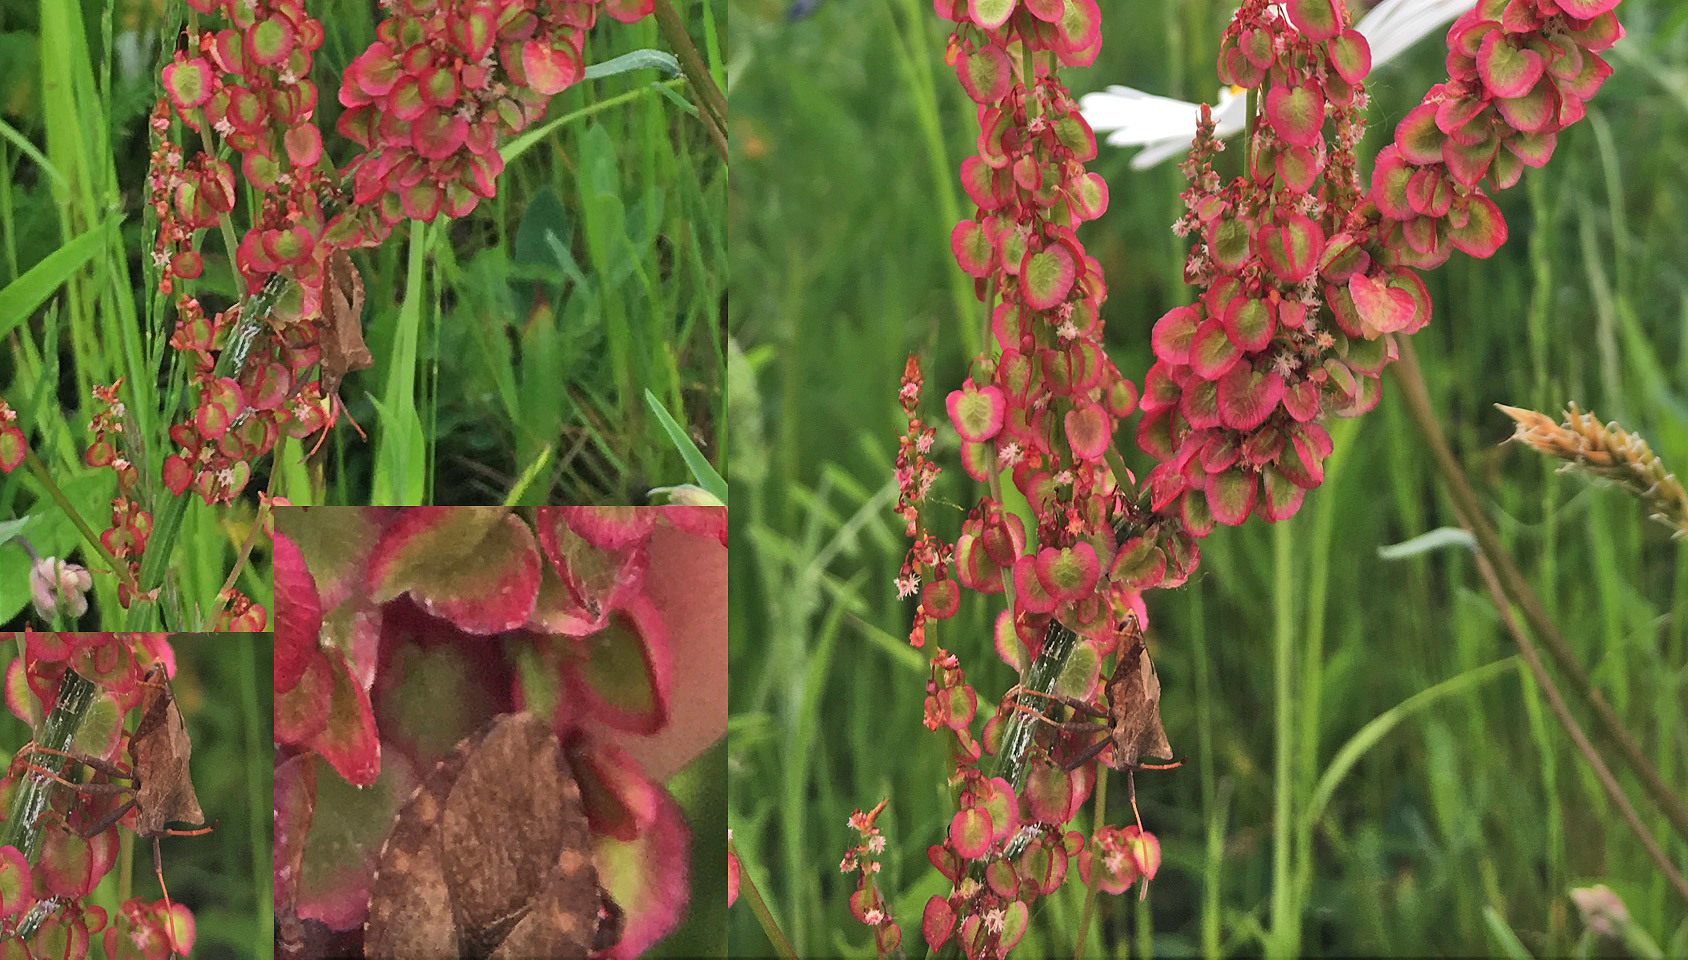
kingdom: Animalia
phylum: Arthropoda
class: Insecta
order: Hemiptera
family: Coreidae
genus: Coreus
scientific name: Coreus marginatus
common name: Dock bug
